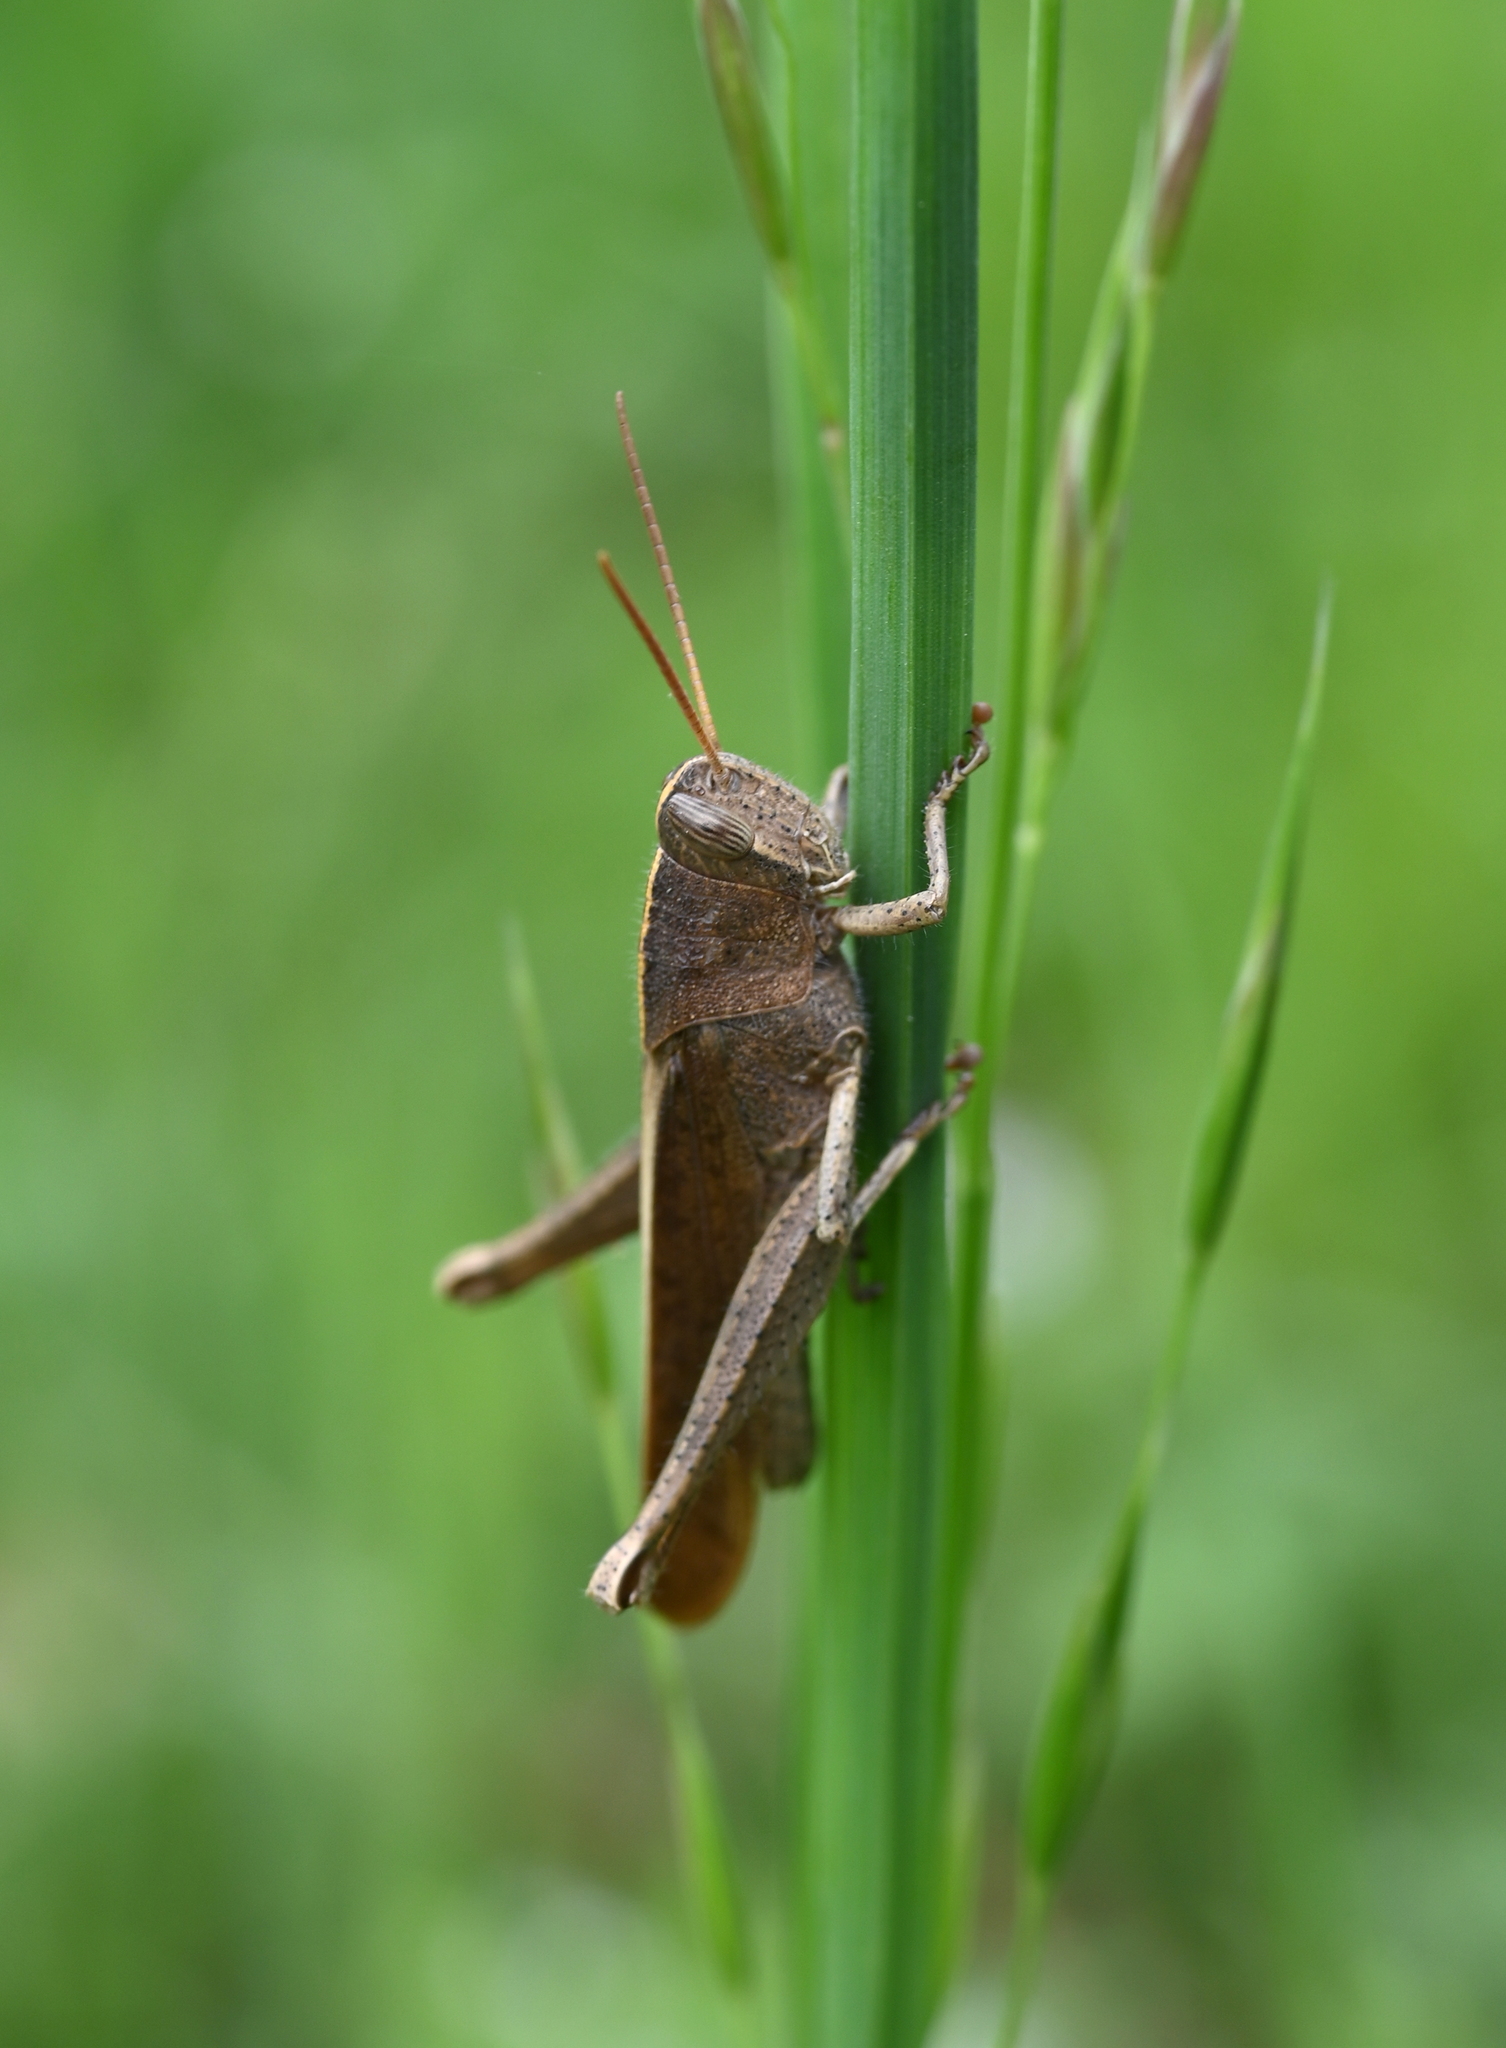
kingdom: Animalia
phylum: Arthropoda
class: Insecta
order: Orthoptera
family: Acrididae
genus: Schistocerca
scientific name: Schistocerca damnifica
